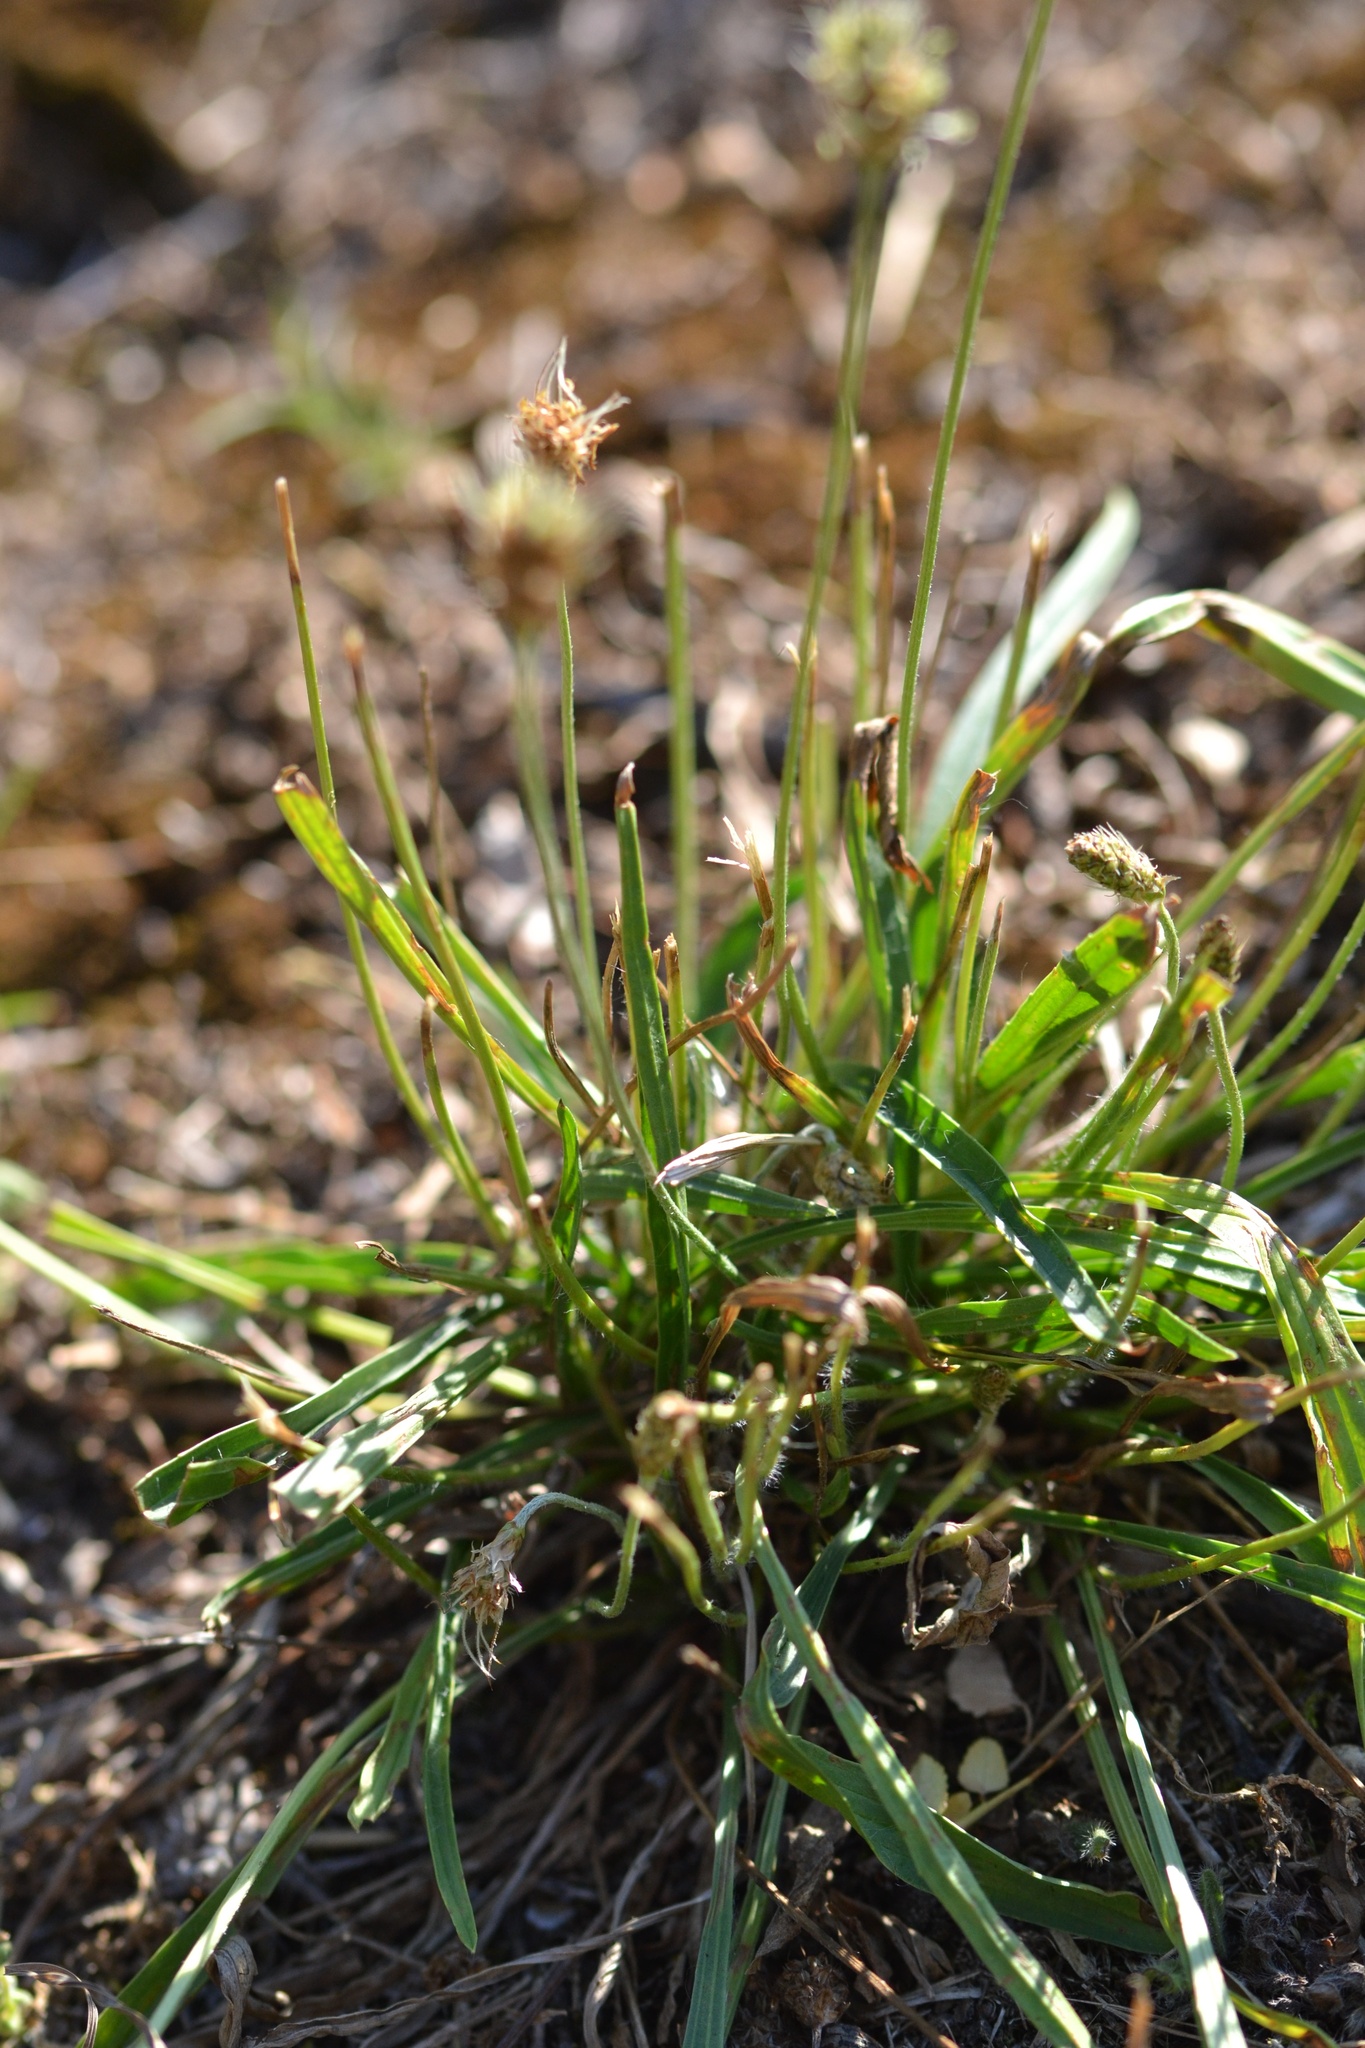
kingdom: Plantae
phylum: Tracheophyta
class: Magnoliopsida
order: Lamiales
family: Plantaginaceae
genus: Plantago
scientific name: Plantago lanceolata
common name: Ribwort plantain
